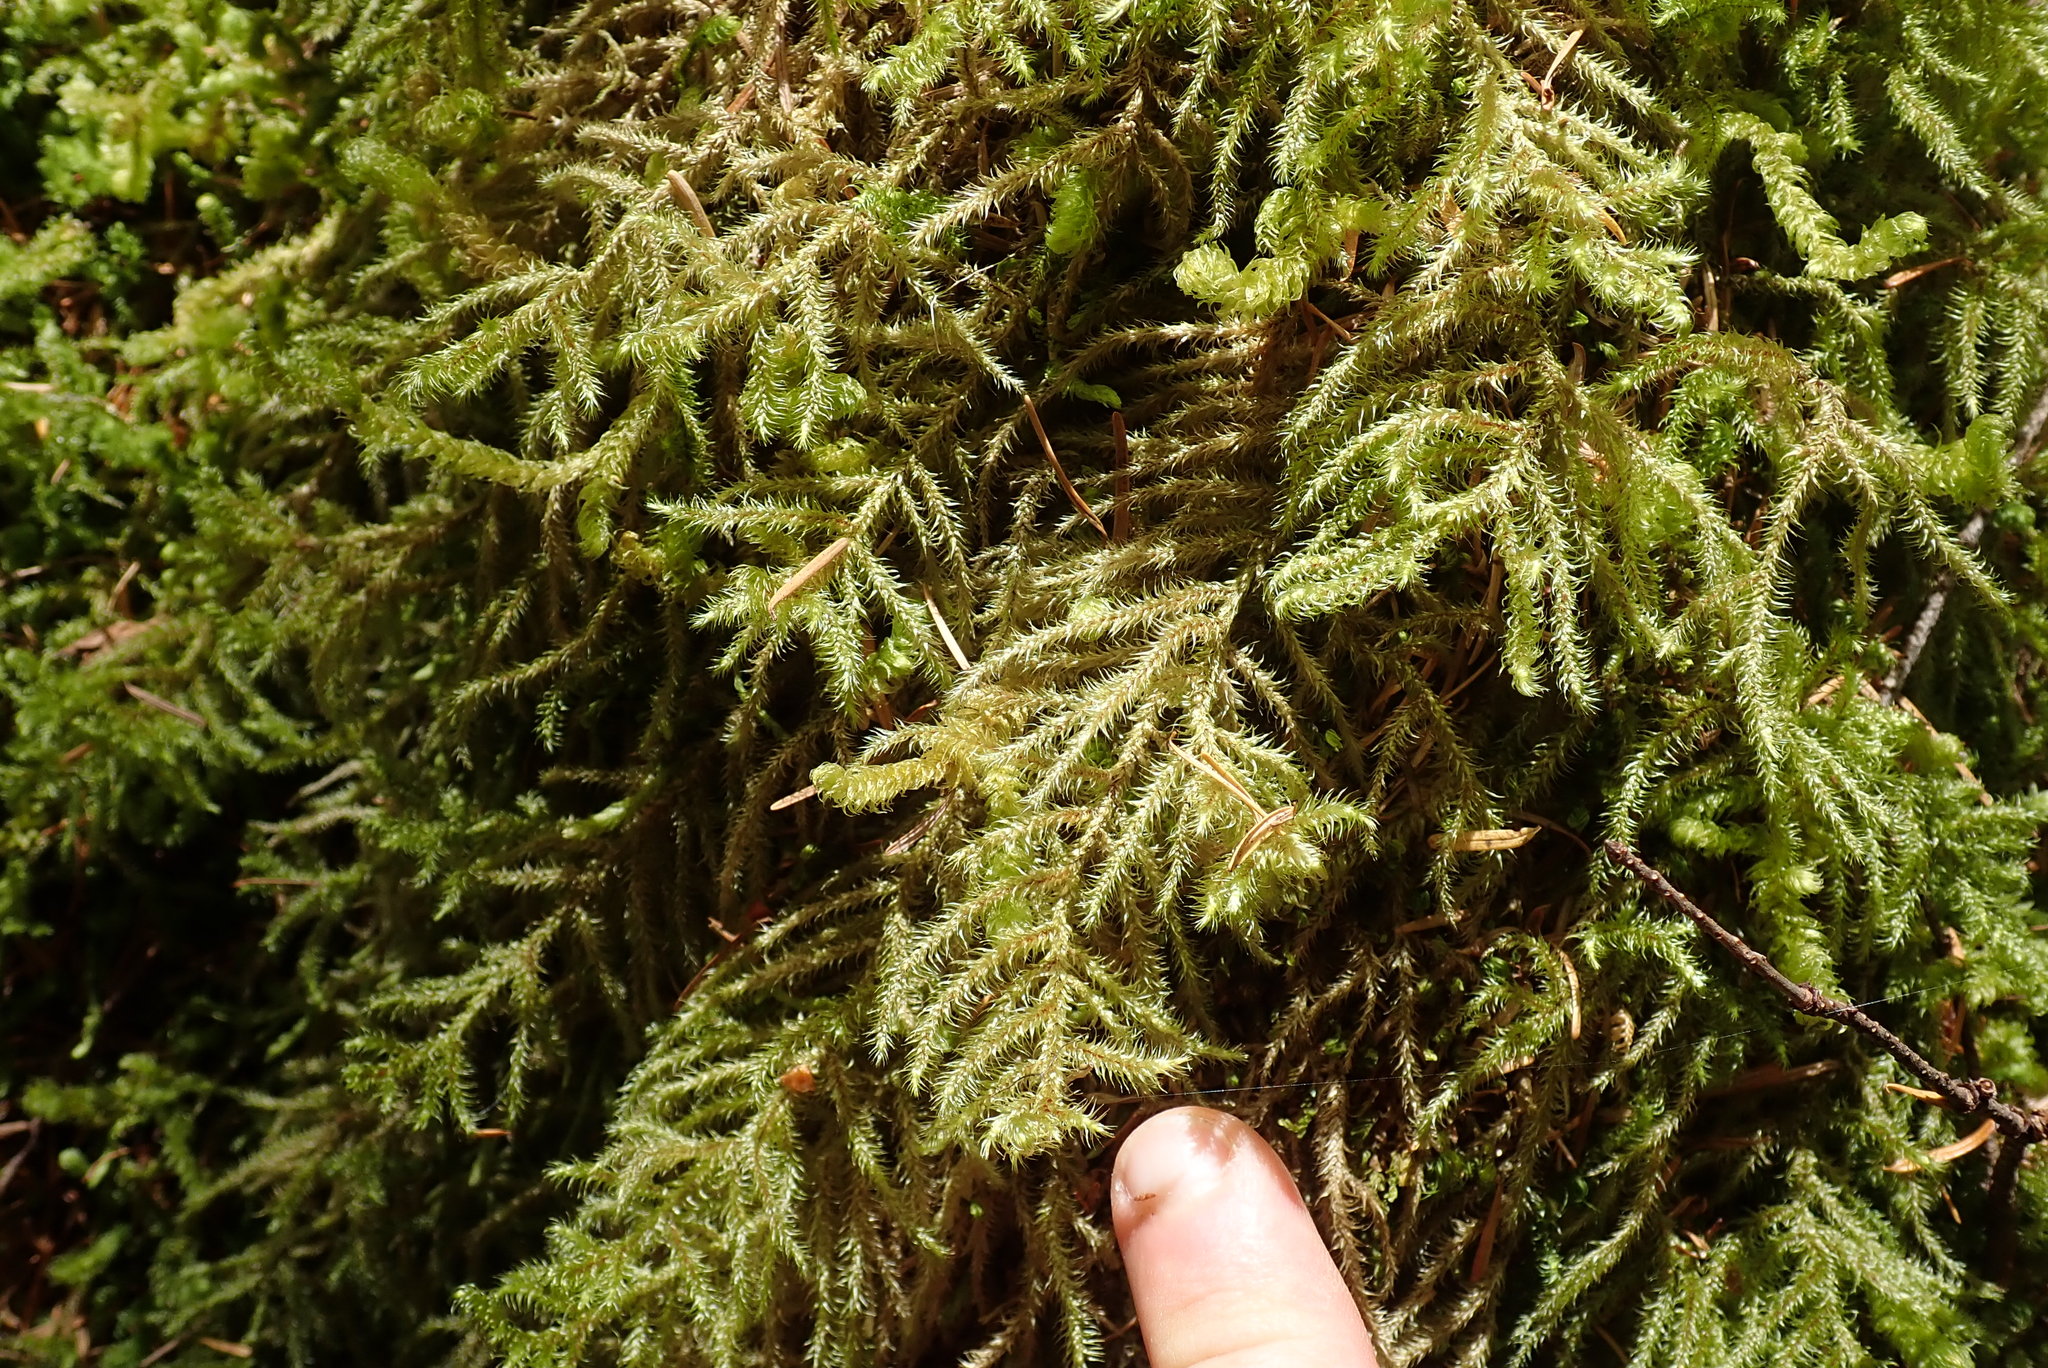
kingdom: Plantae
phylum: Bryophyta
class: Bryopsida
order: Hypnales
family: Hylocomiaceae
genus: Rhytidiadelphus
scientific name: Rhytidiadelphus loreus
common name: Lanky moss
